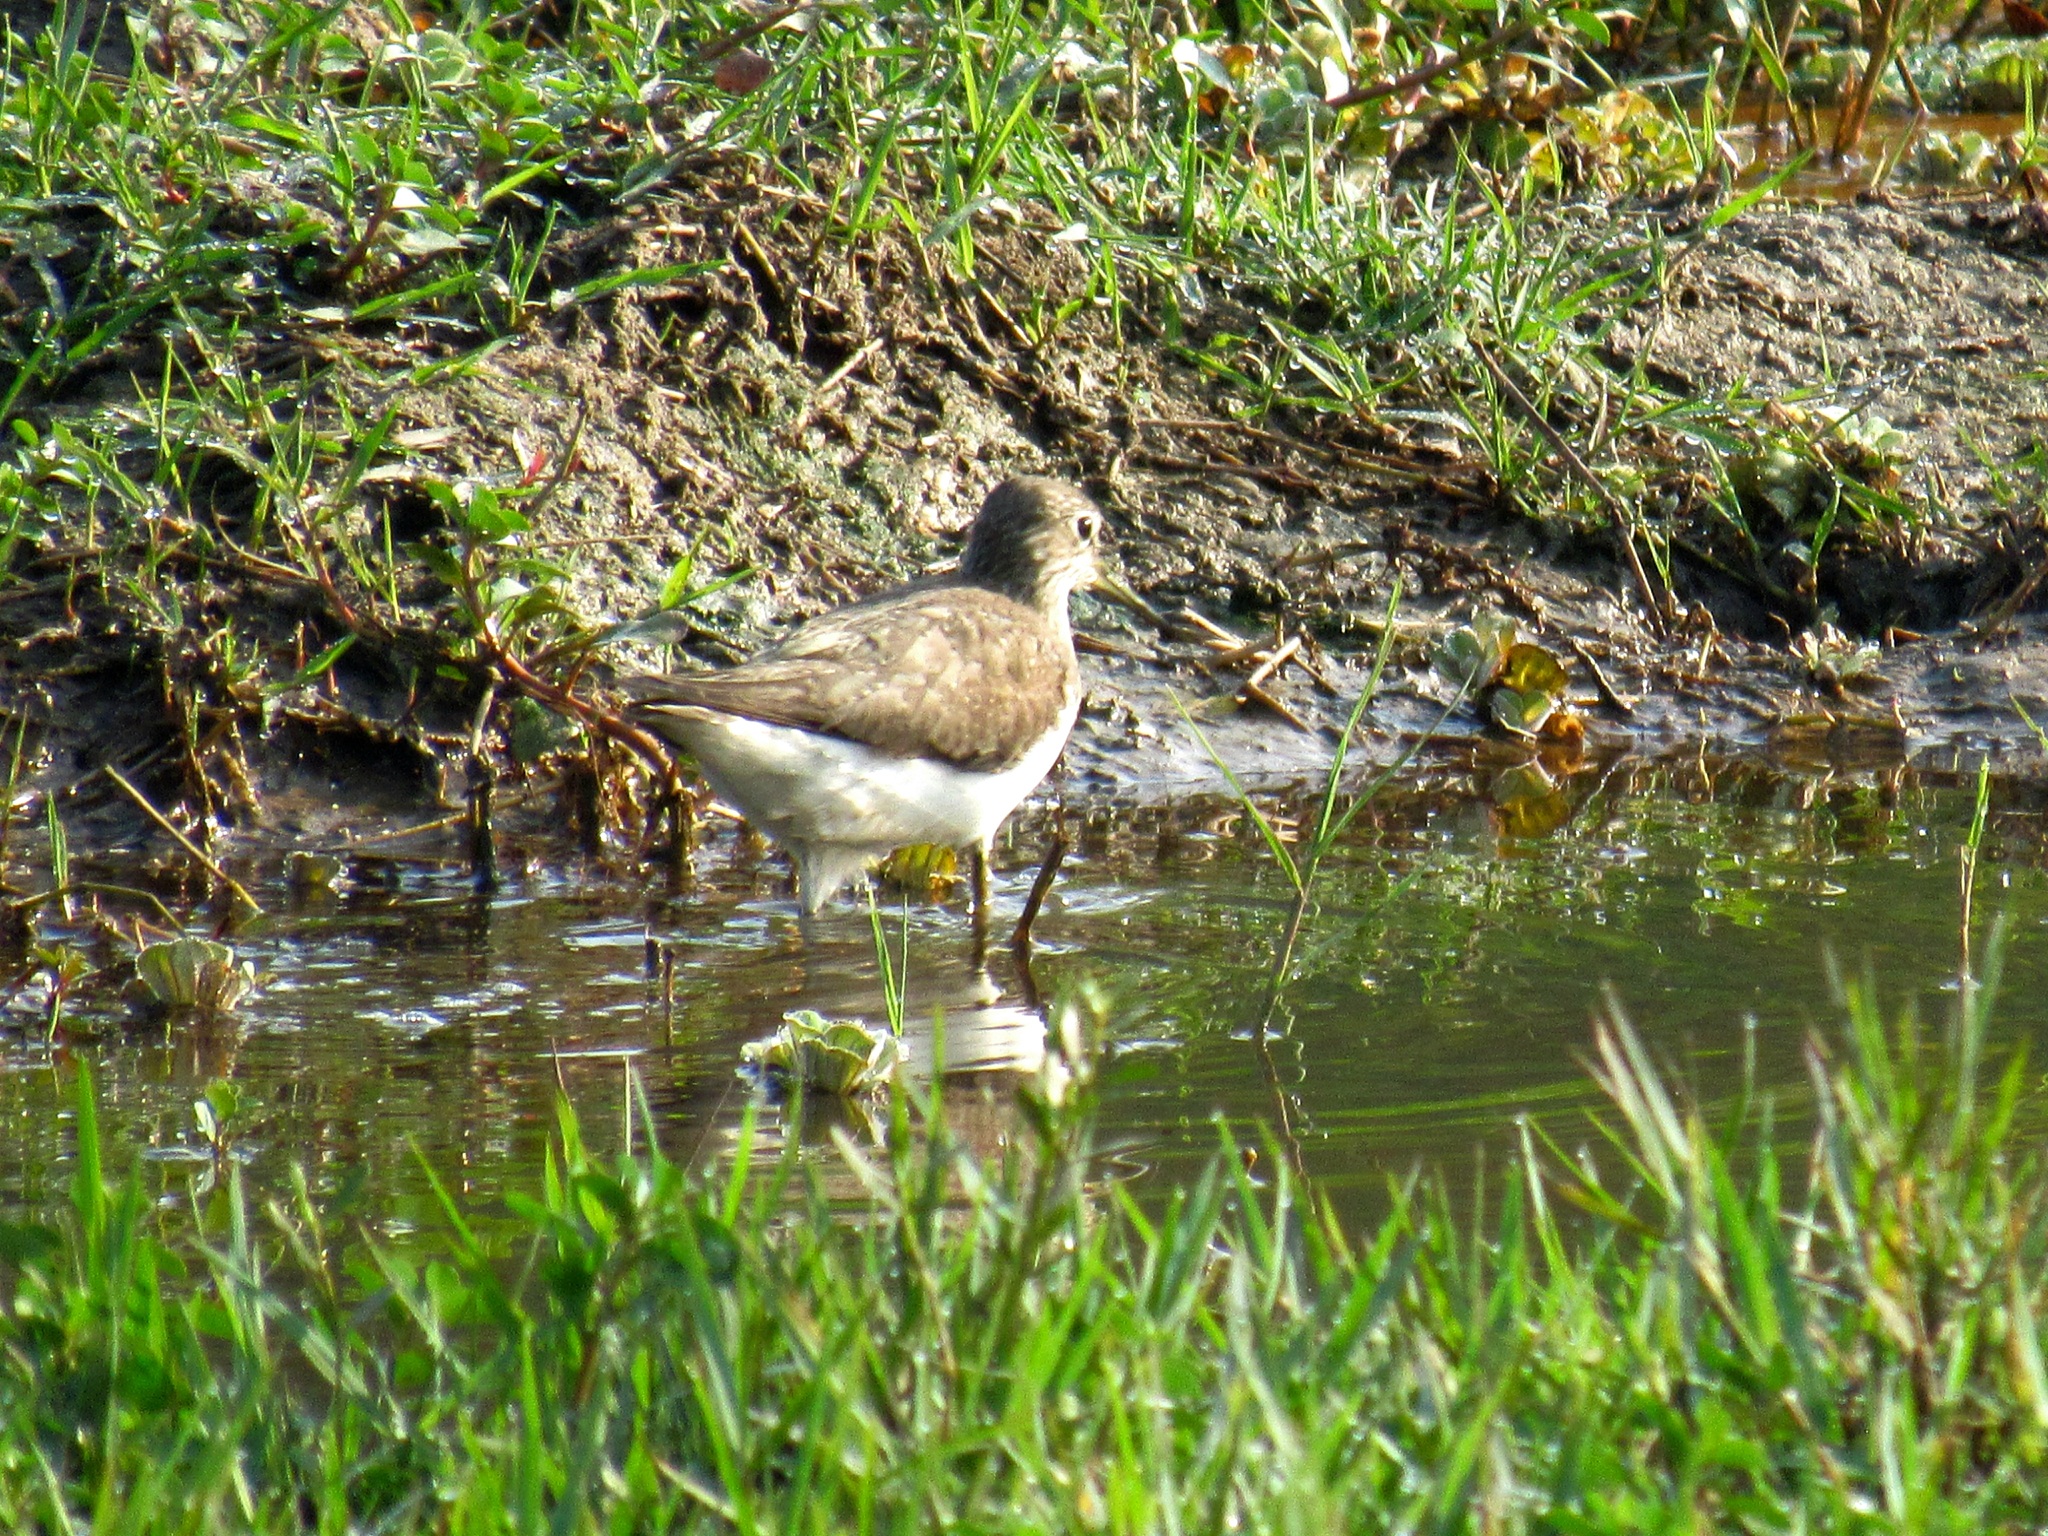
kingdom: Animalia
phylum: Chordata
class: Aves
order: Charadriiformes
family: Scolopacidae
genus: Tringa
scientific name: Tringa glareola
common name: Wood sandpiper
